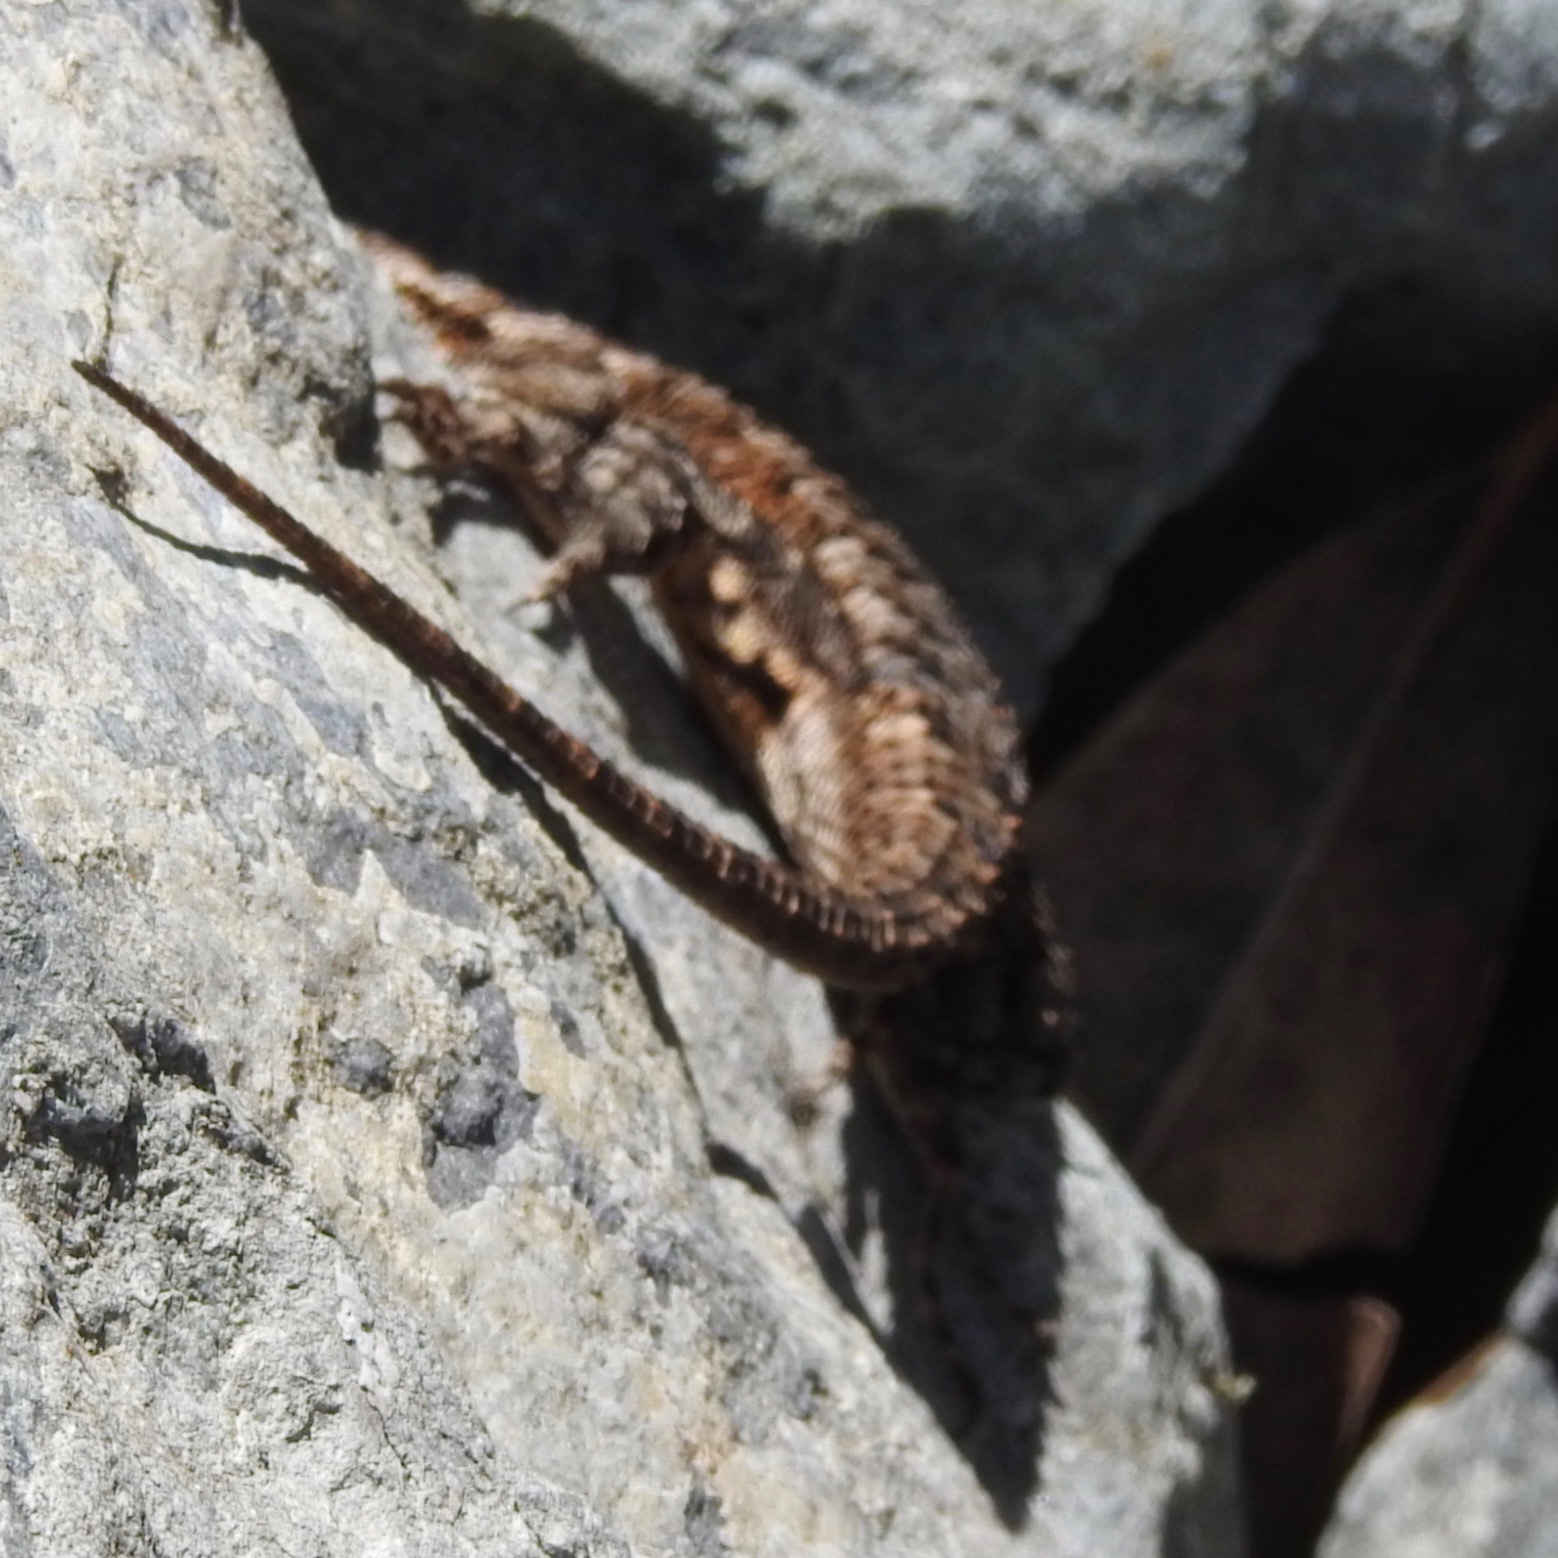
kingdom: Animalia
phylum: Chordata
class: Squamata
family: Phrynosomatidae
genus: Sceloporus
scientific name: Sceloporus occidentalis
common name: Western fence lizard
